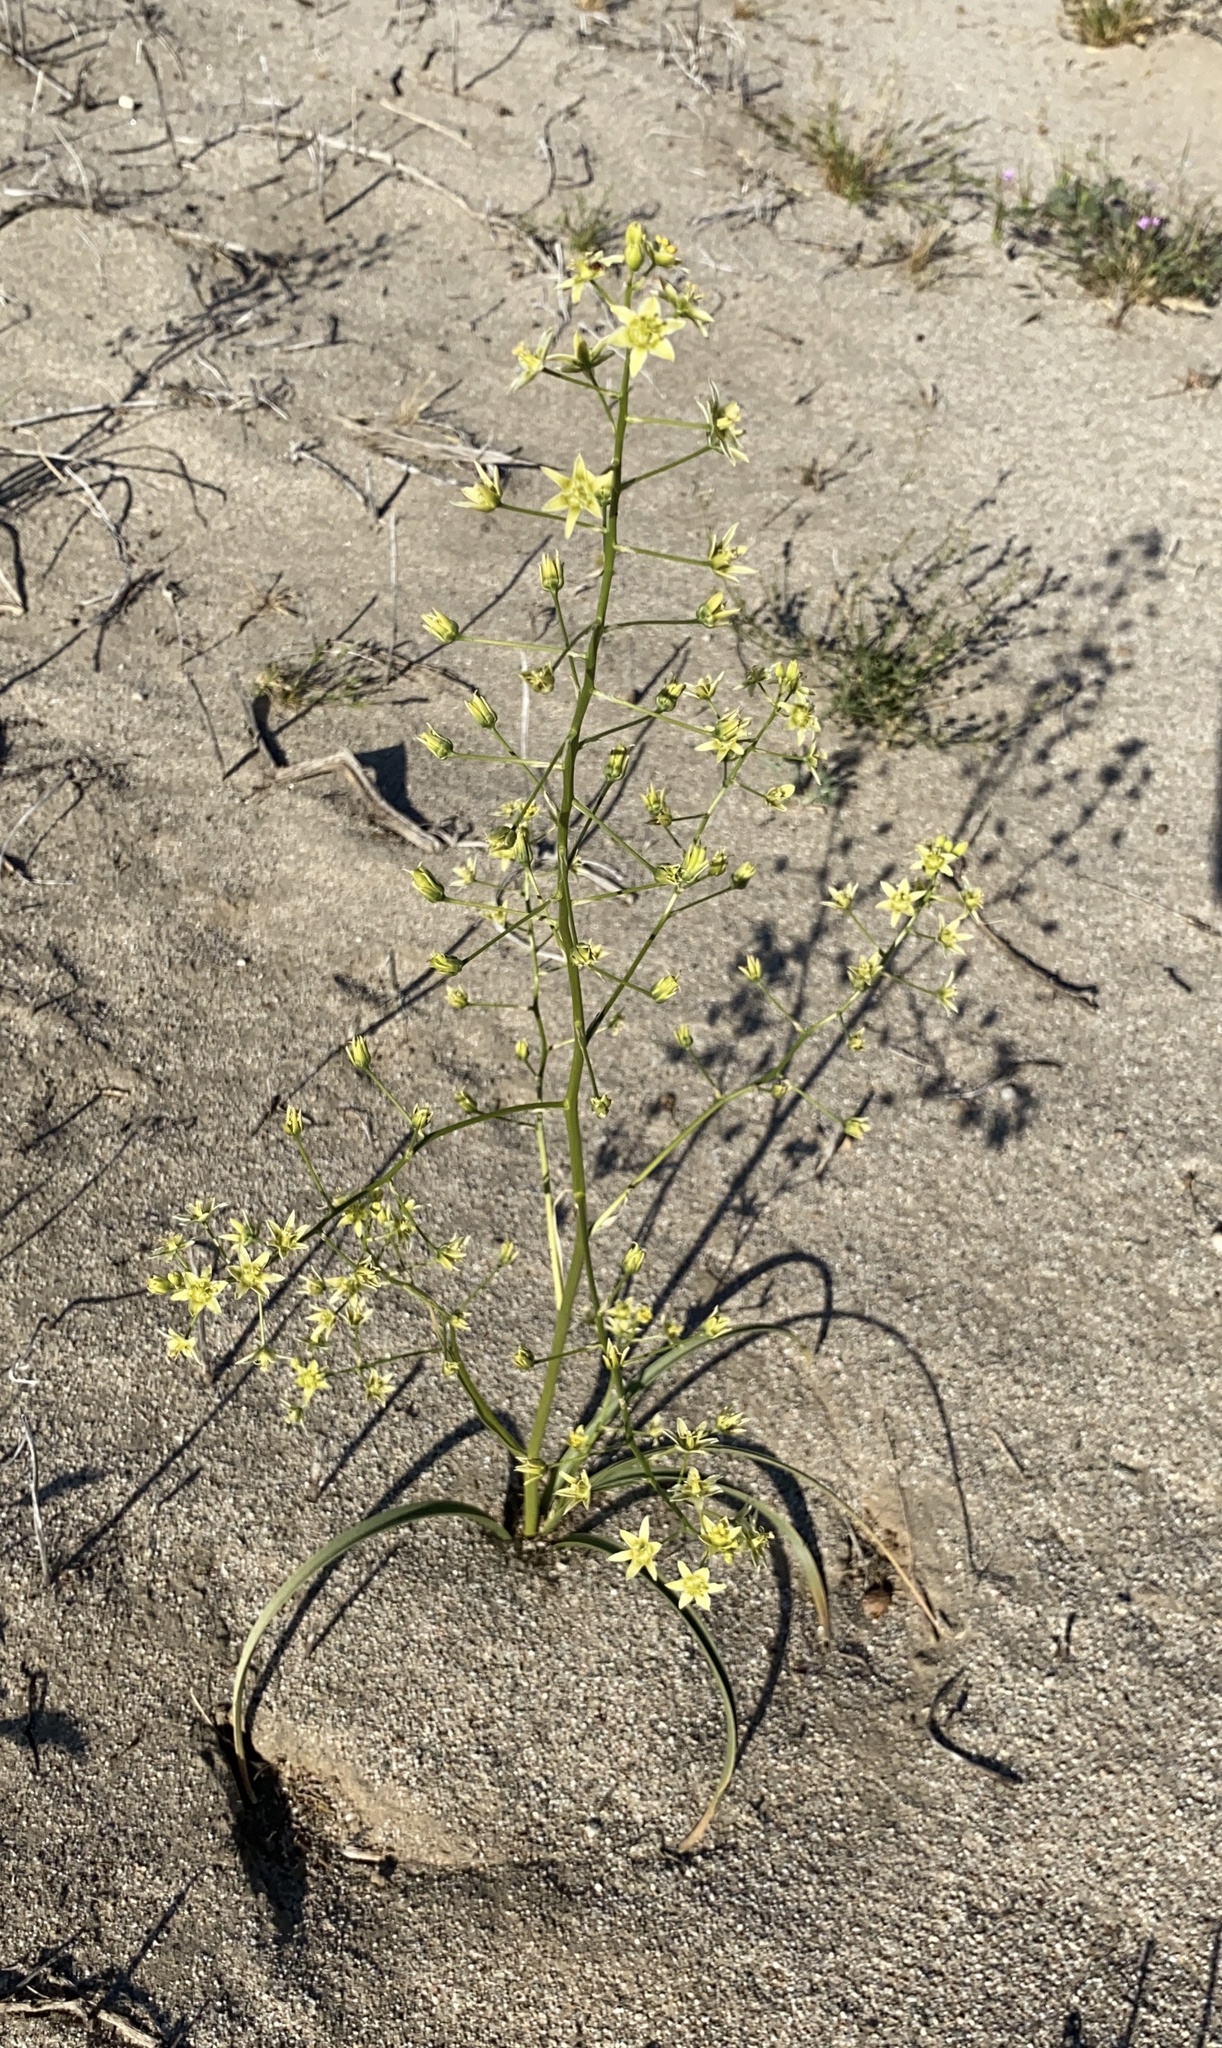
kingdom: Plantae
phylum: Tracheophyta
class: Liliopsida
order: Liliales
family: Melanthiaceae
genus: Toxicoscordion
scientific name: Toxicoscordion brevibracteatum
